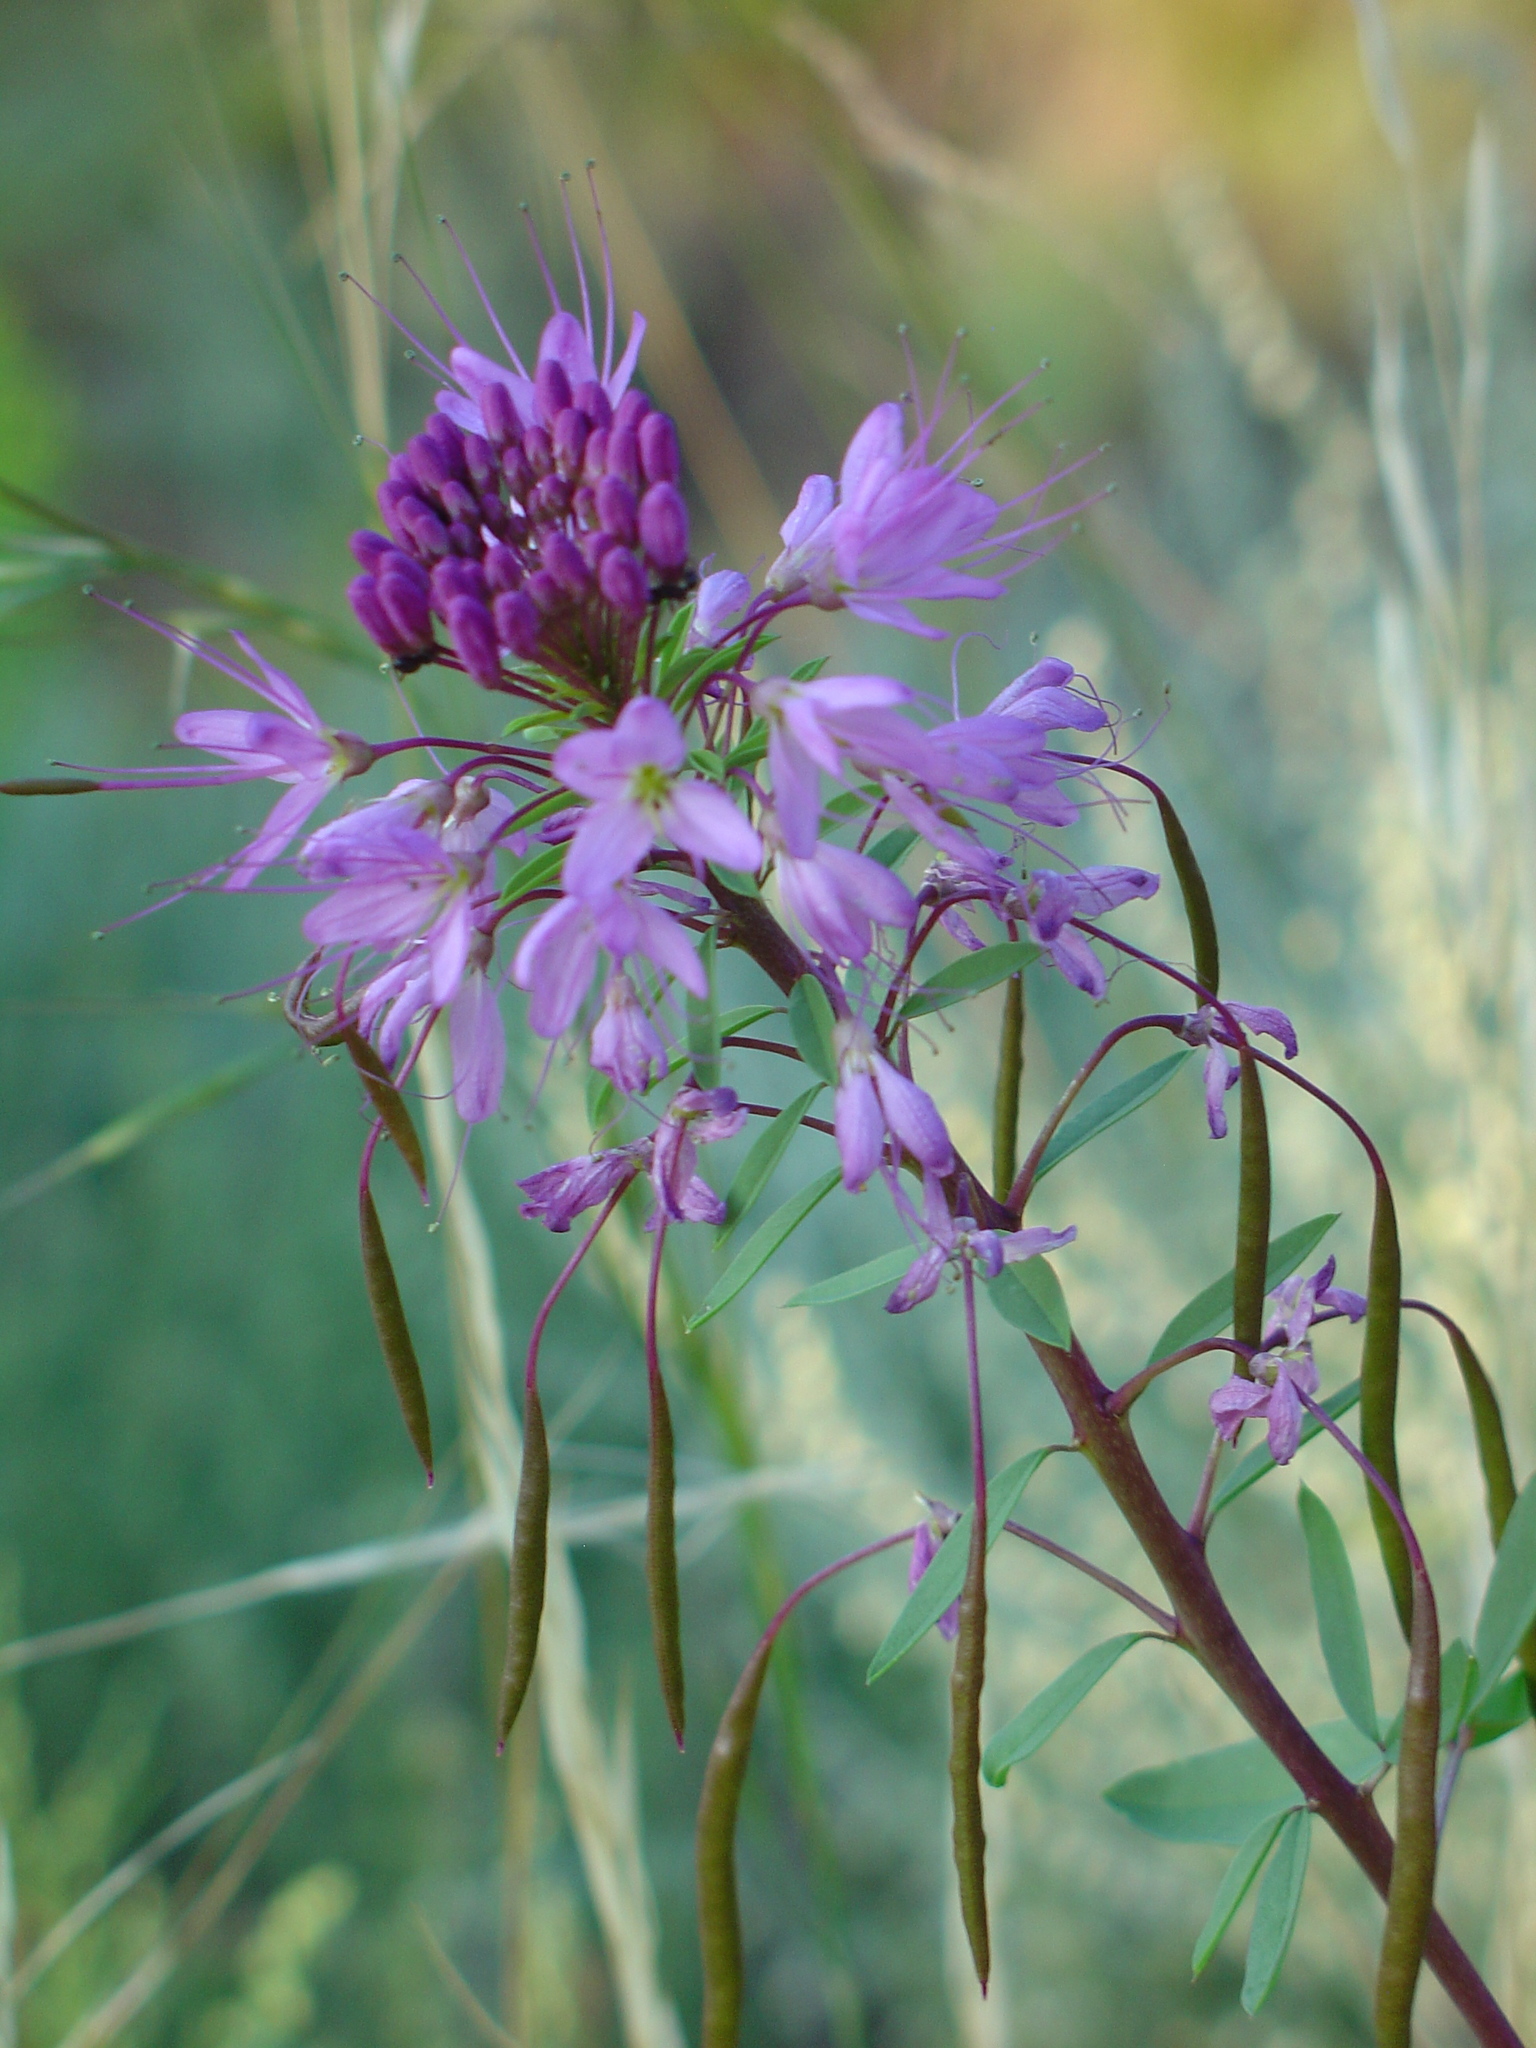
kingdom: Plantae
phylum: Tracheophyta
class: Magnoliopsida
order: Brassicales
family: Cleomaceae
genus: Cleomella
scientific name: Cleomella serrulata
